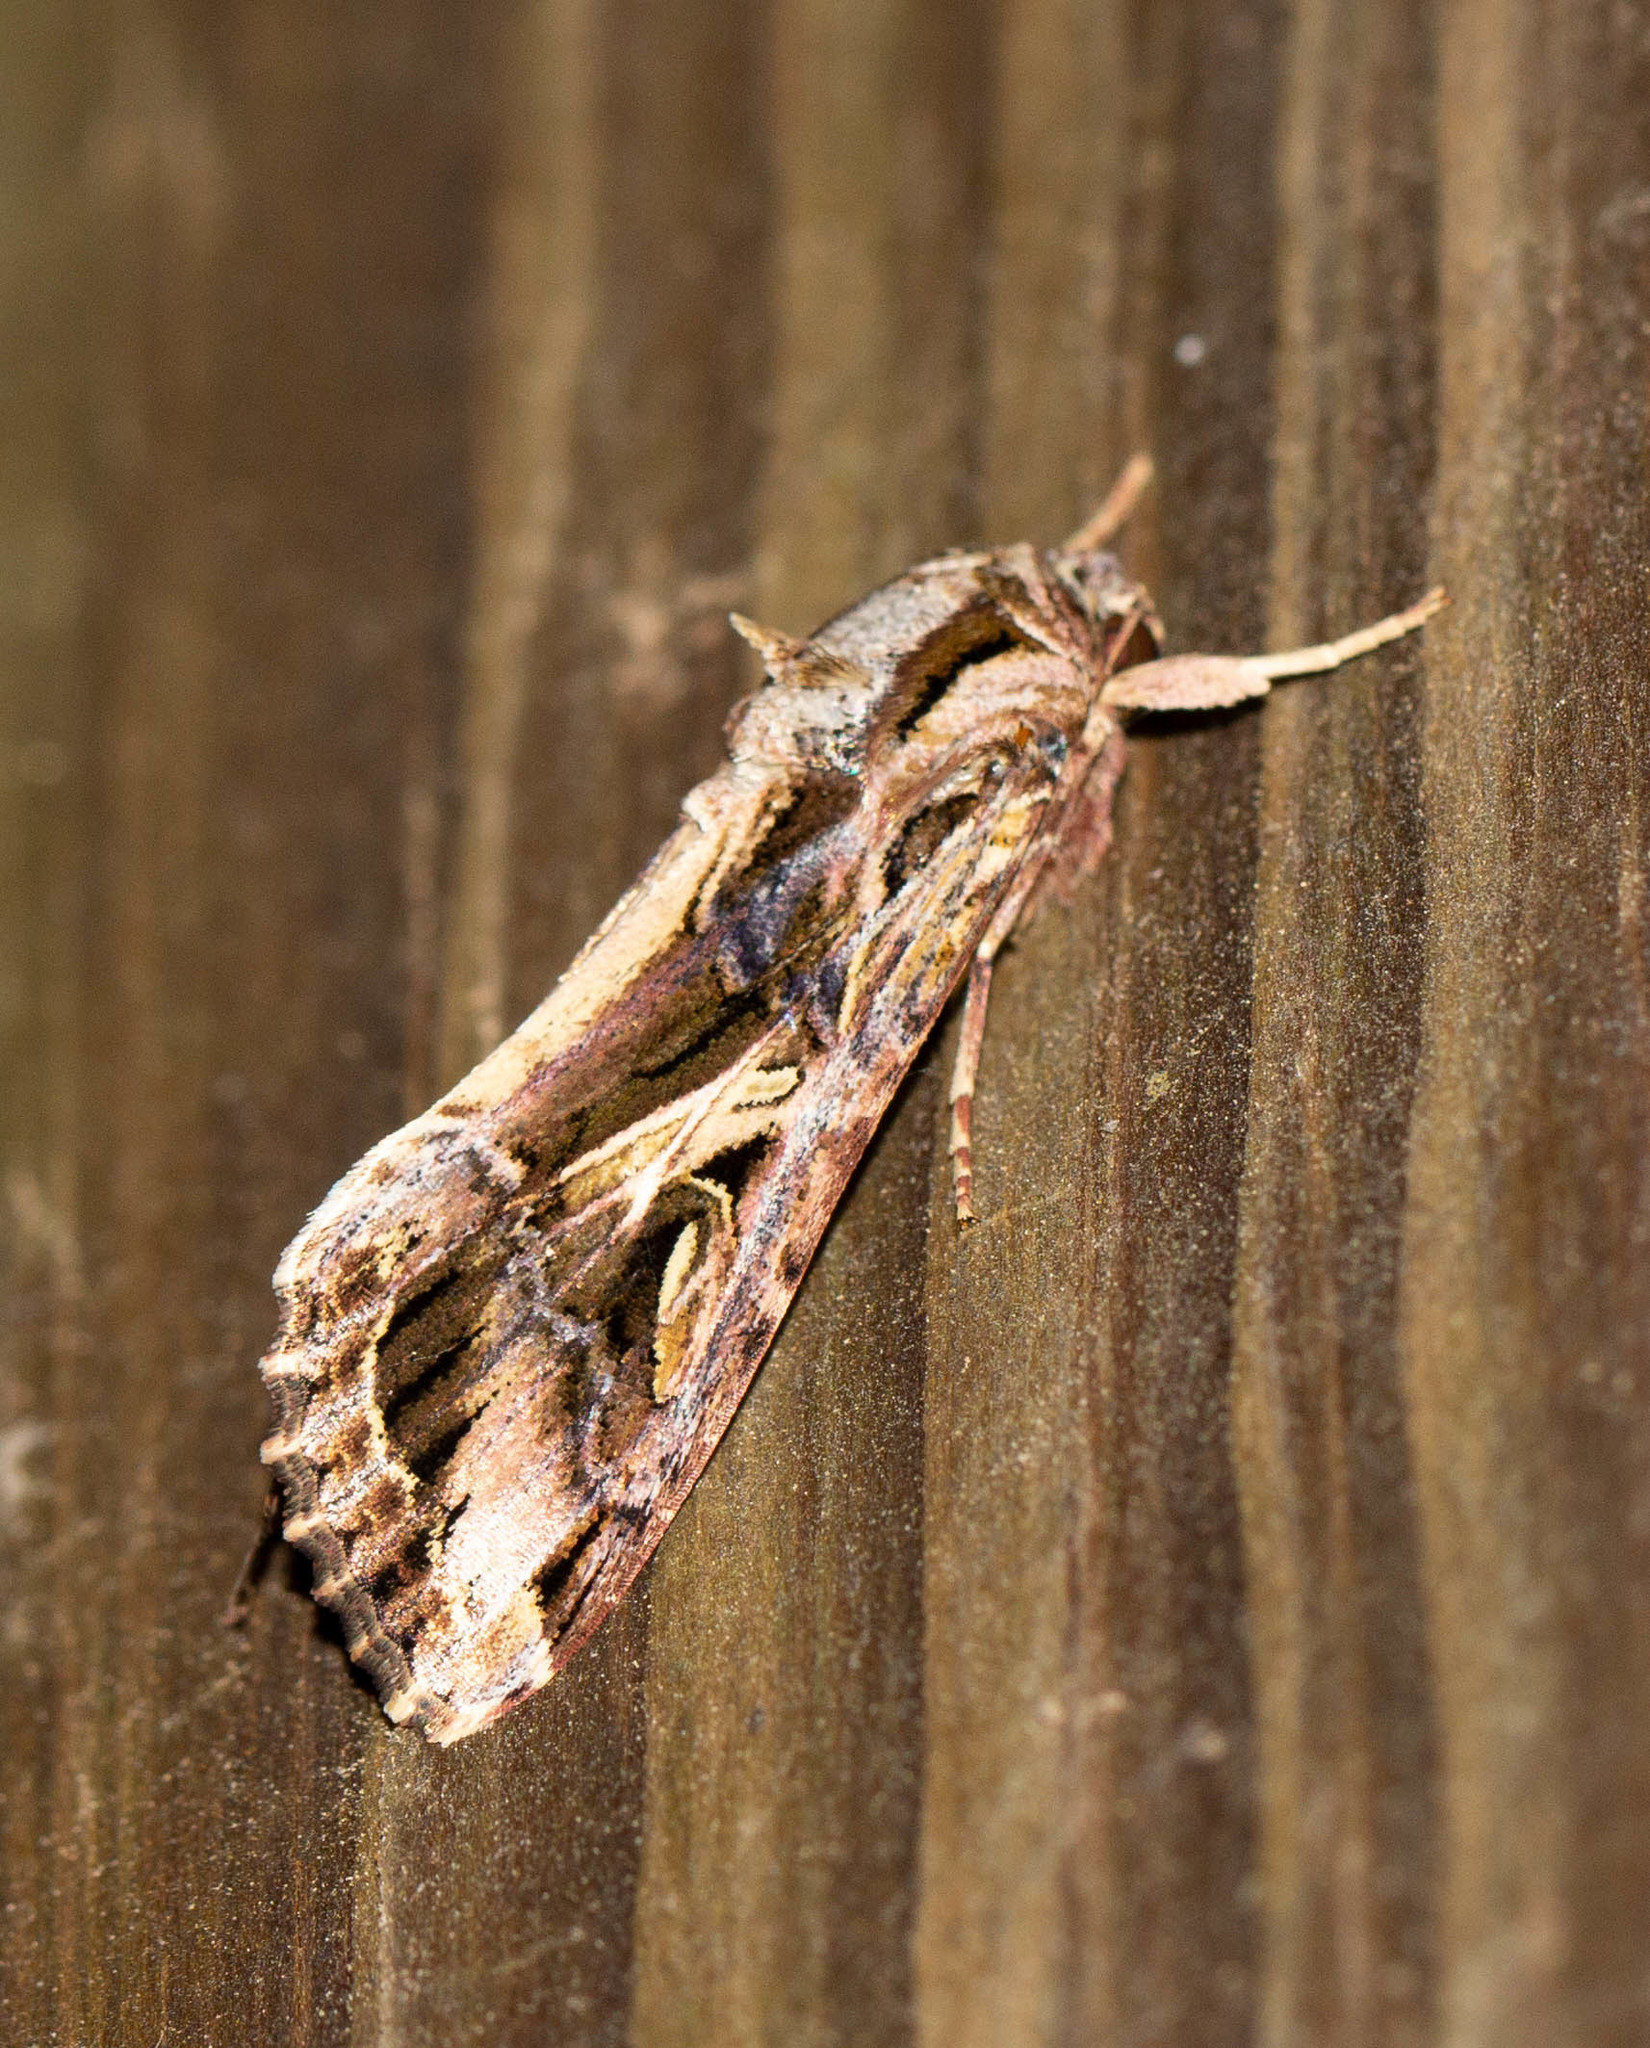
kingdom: Animalia
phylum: Arthropoda
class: Insecta
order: Lepidoptera
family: Noctuidae
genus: Spodoptera
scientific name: Spodoptera dolichos
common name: Sweetpotato armyworm
